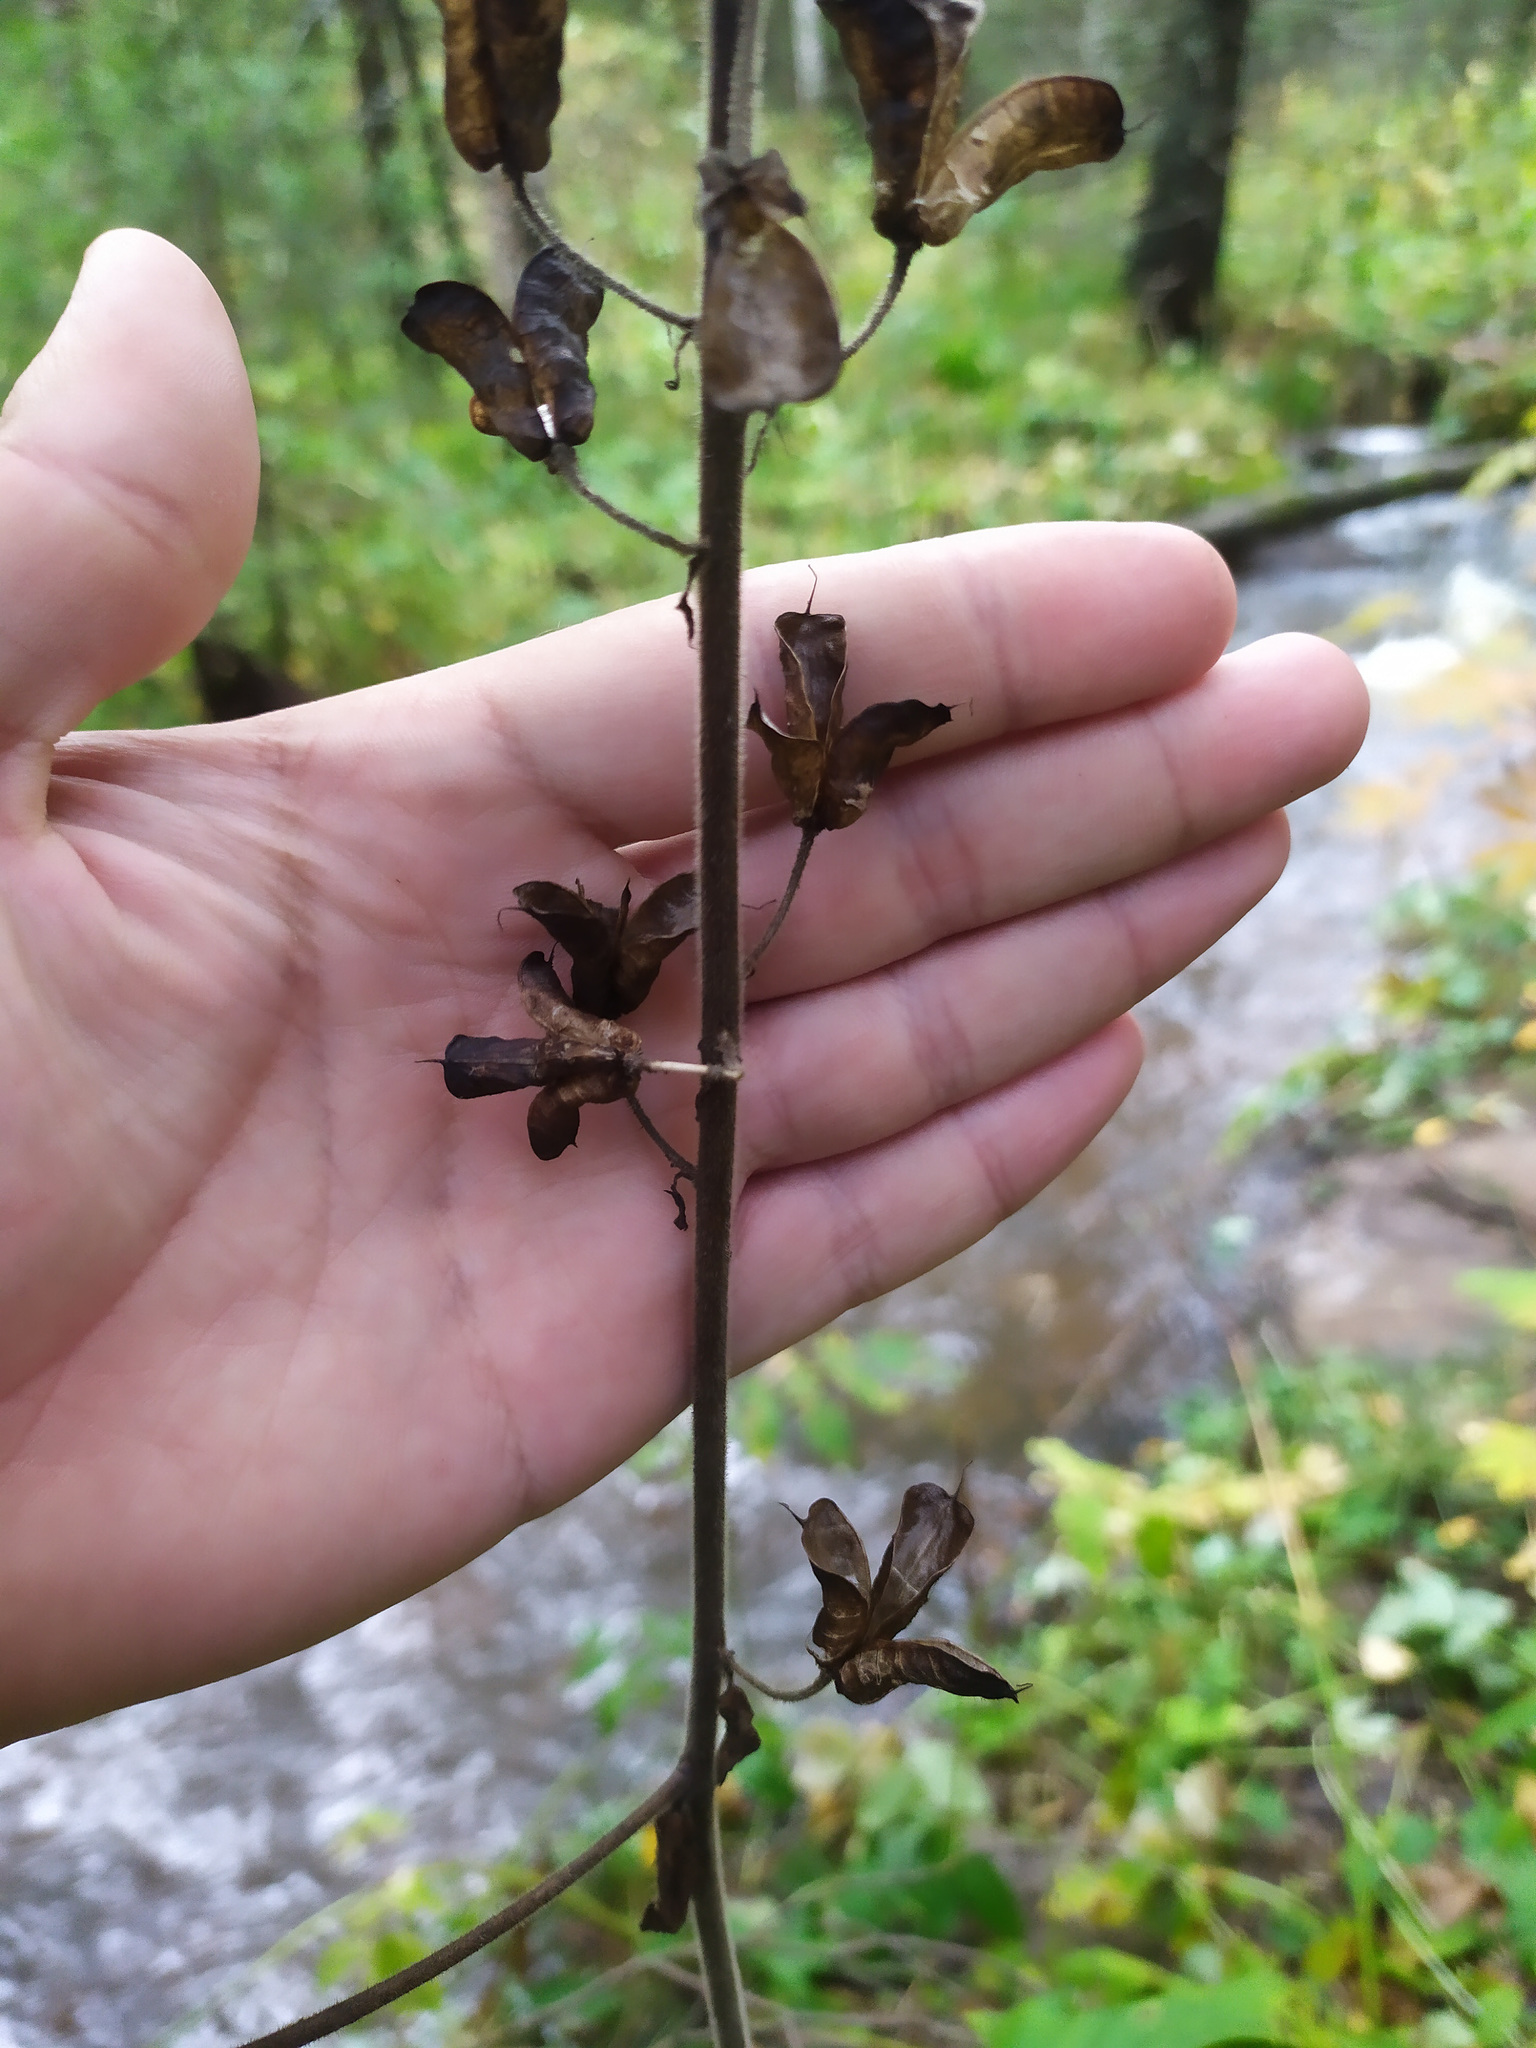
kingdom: Plantae
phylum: Tracheophyta
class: Magnoliopsida
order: Ranunculales
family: Ranunculaceae
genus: Aconitum
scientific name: Aconitum septentrionale
